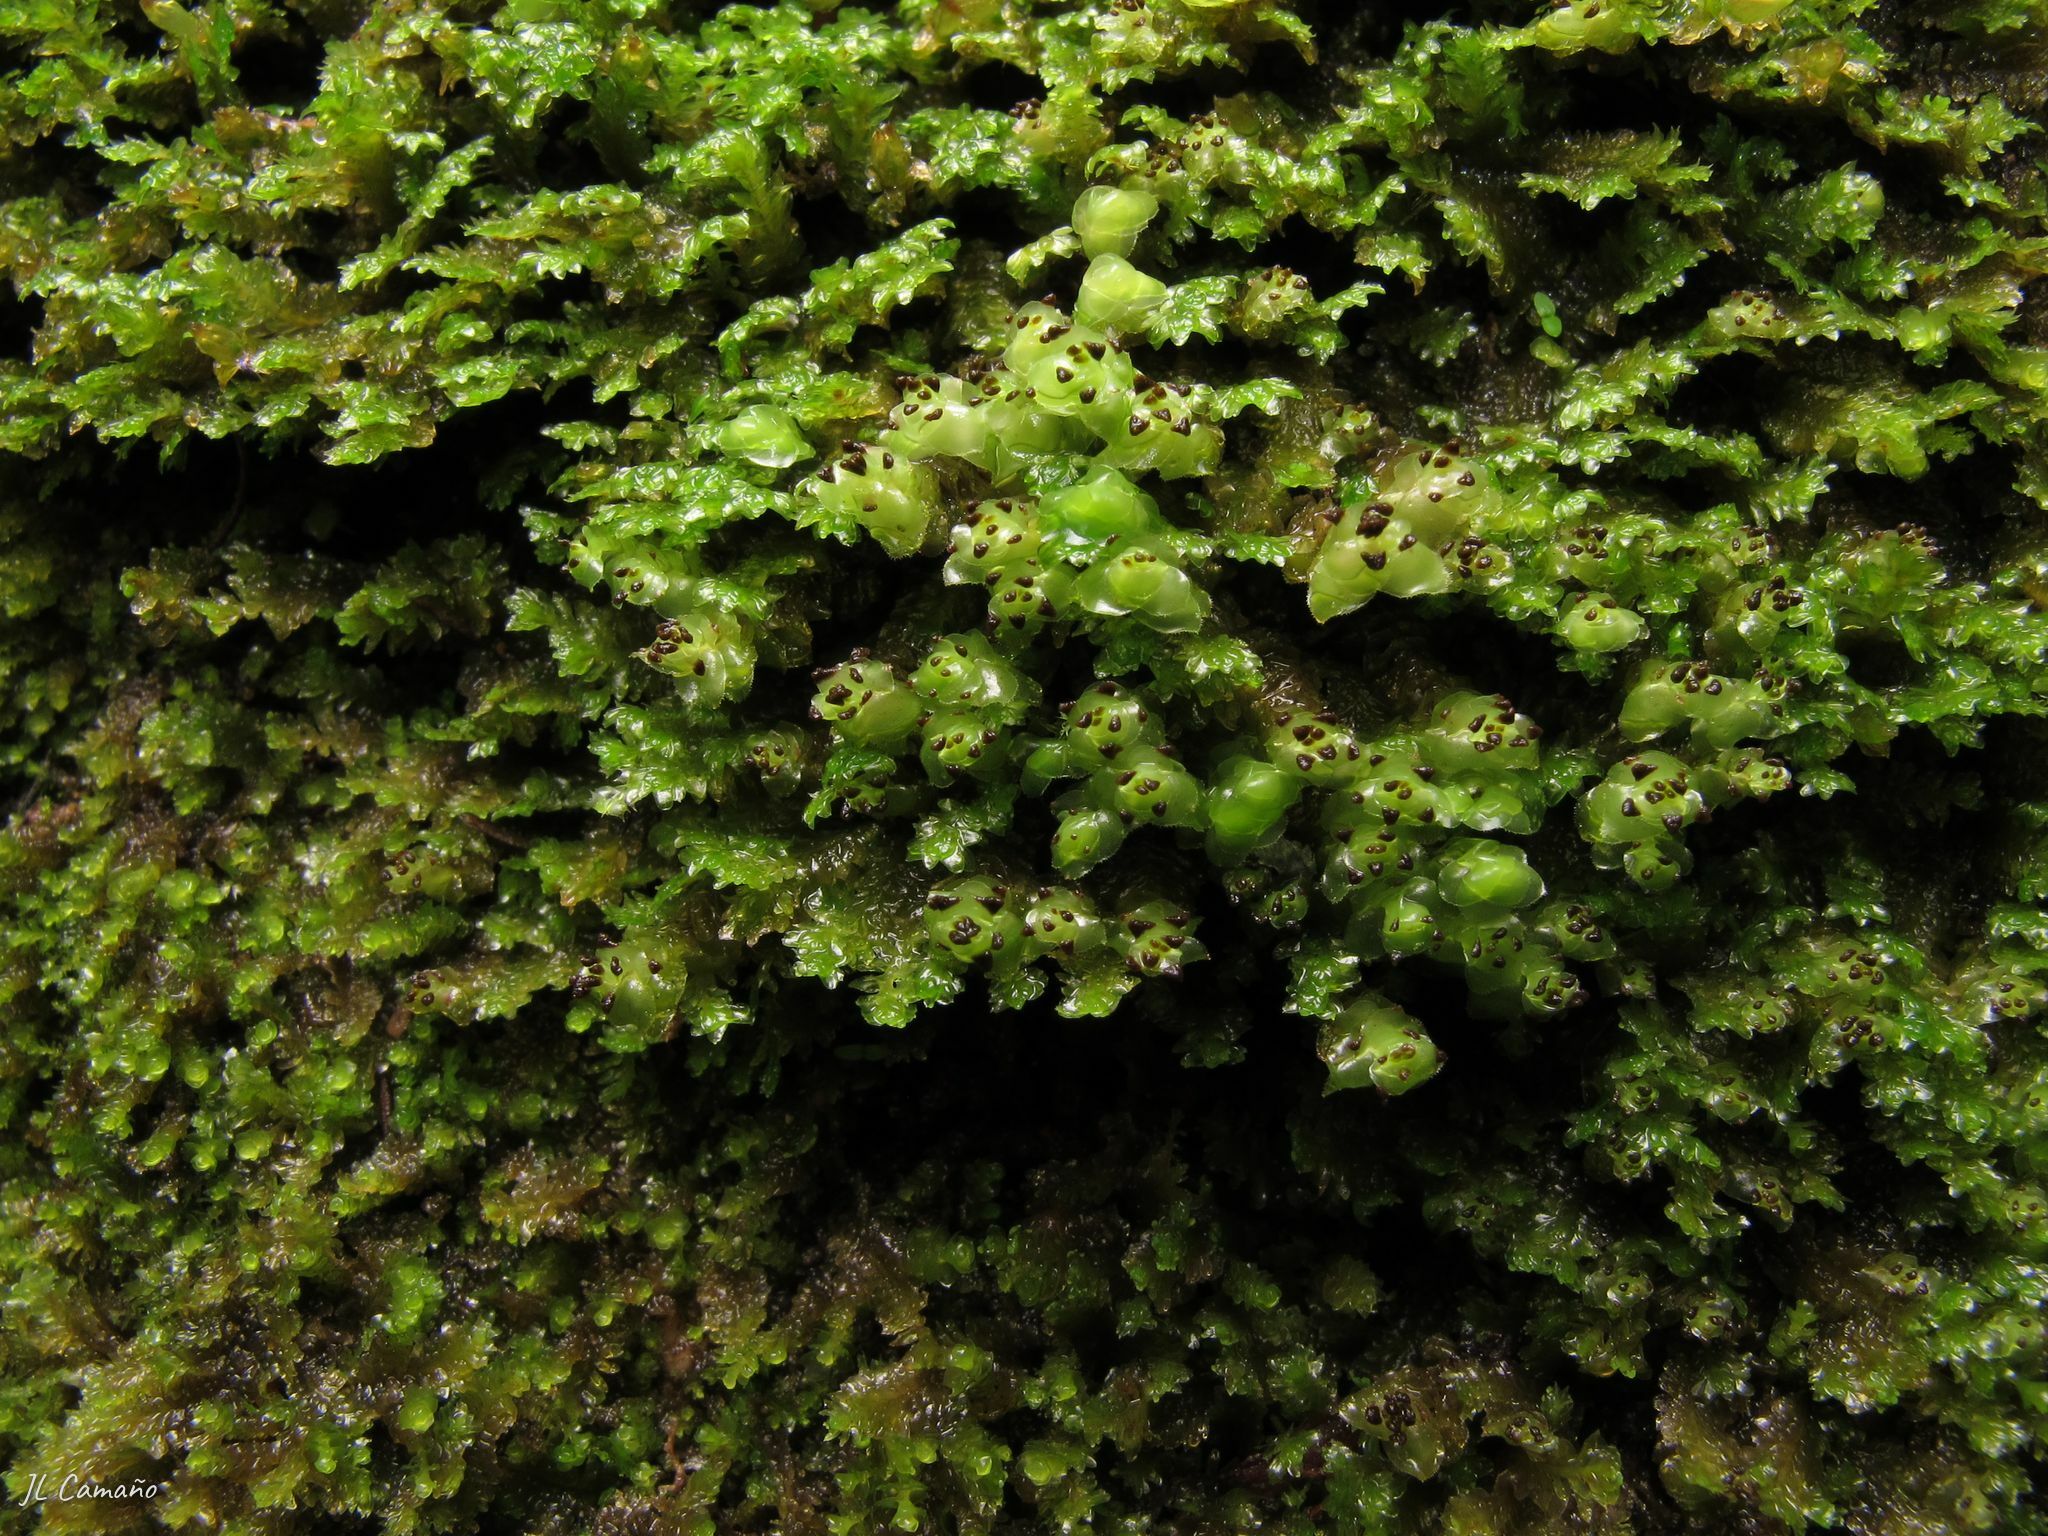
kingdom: Plantae
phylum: Marchantiophyta
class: Jungermanniopsida
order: Jungermanniales
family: Scapaniaceae
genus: Scapania
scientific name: Scapania nemorea
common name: Grove earwort
